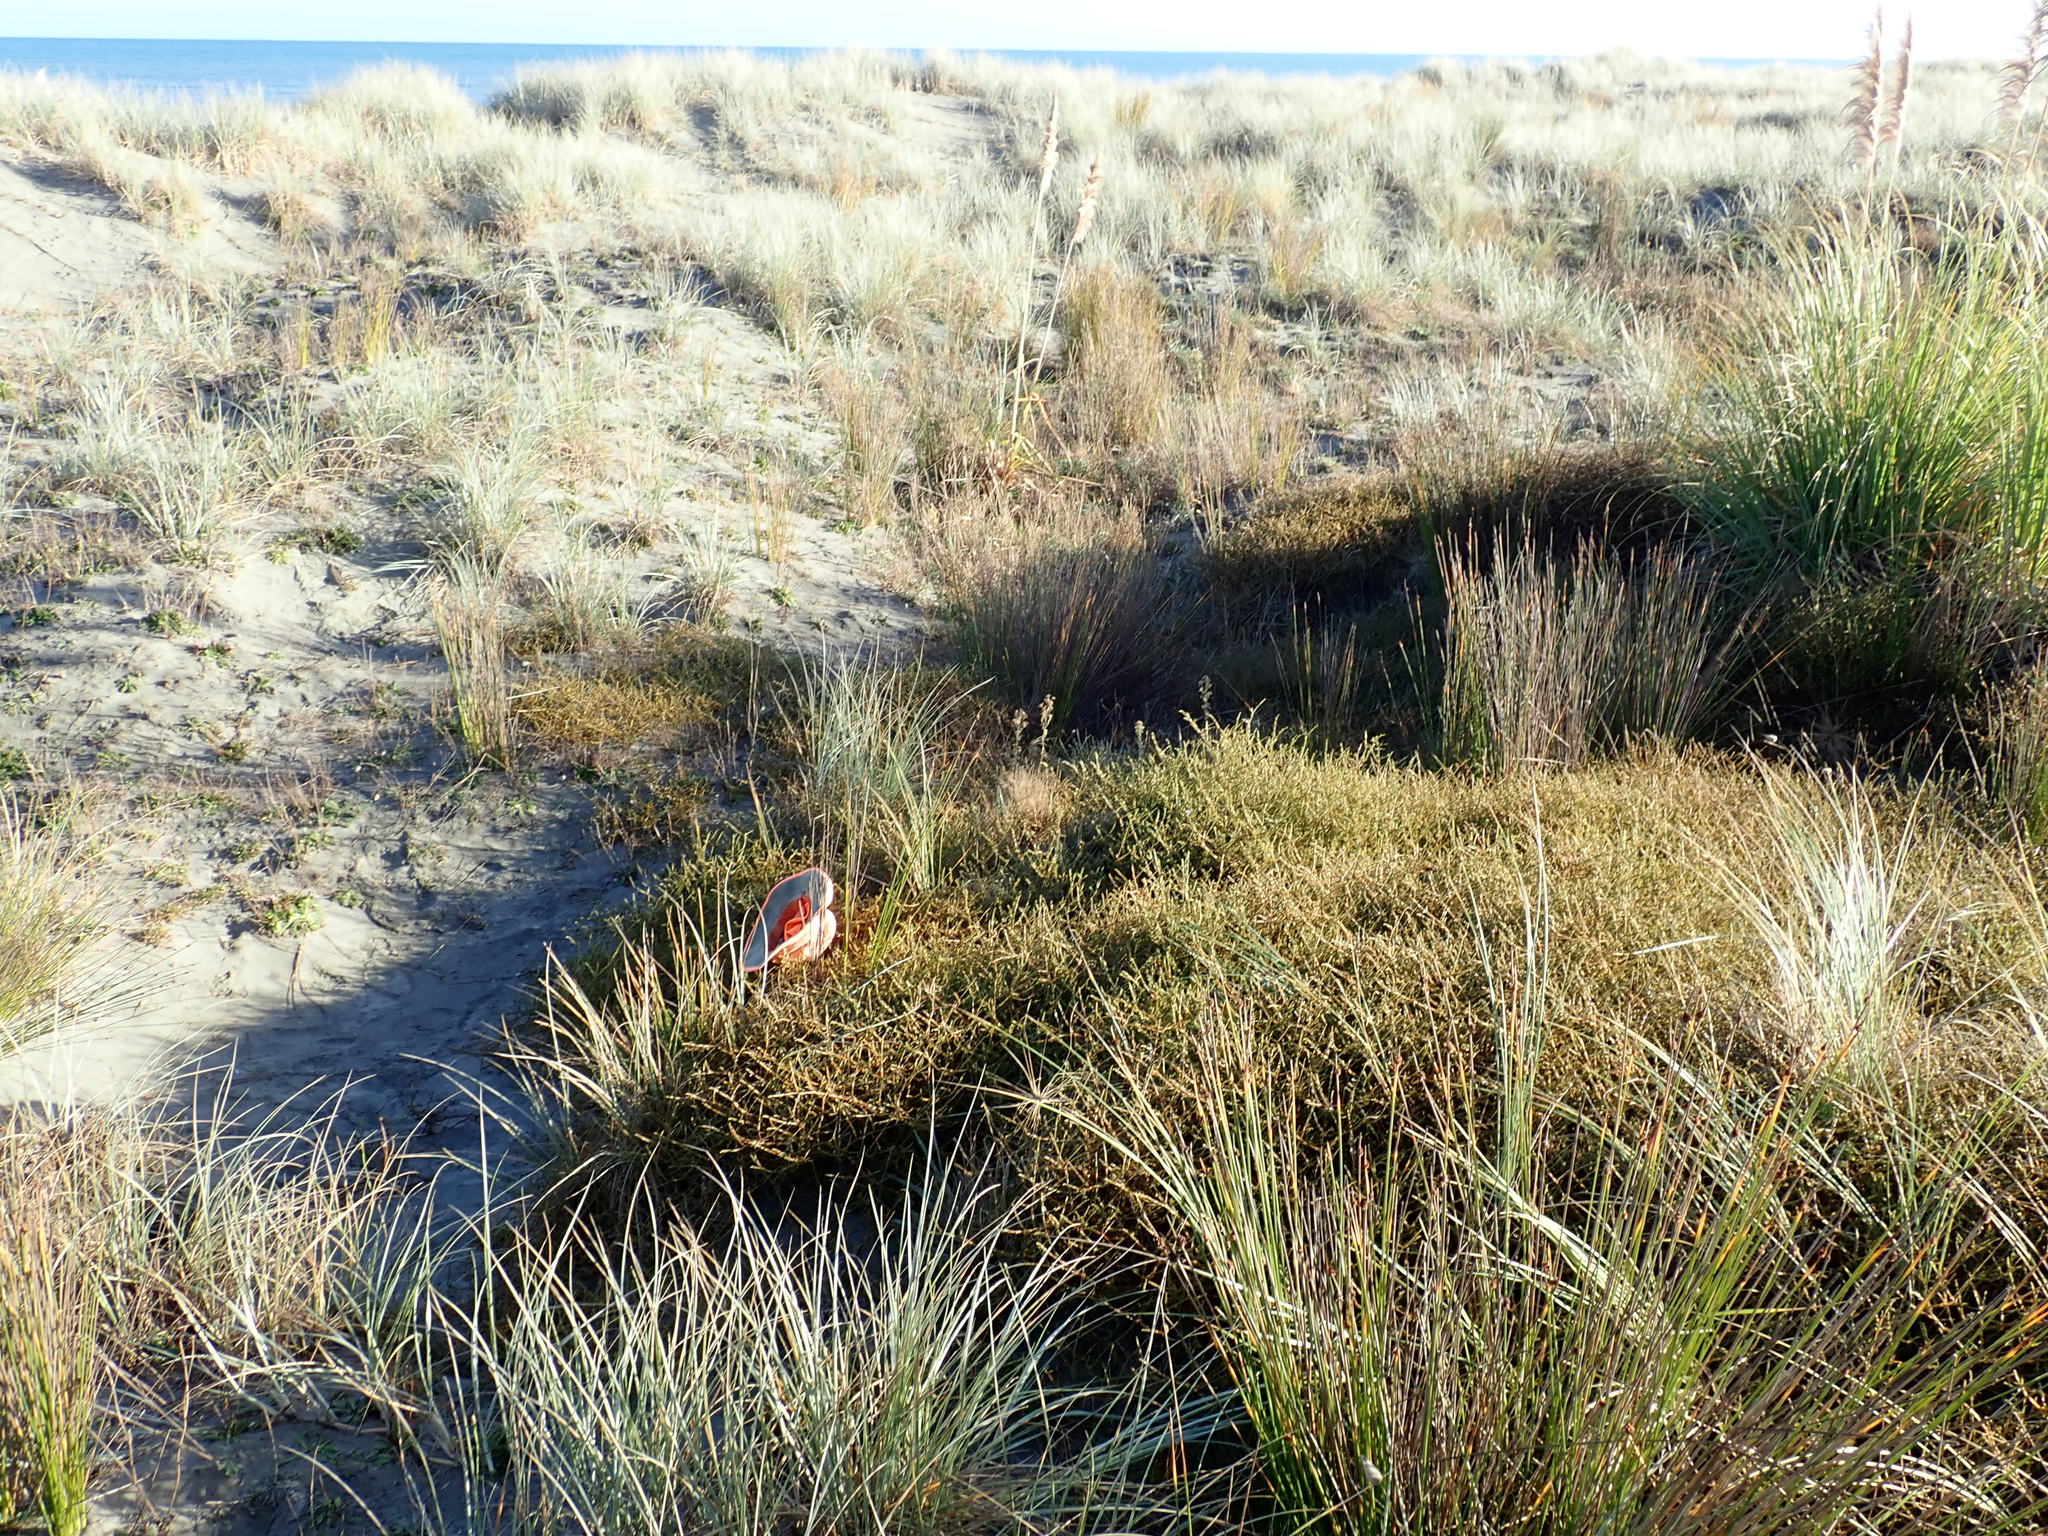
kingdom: Plantae
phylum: Tracheophyta
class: Magnoliopsida
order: Gentianales
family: Rubiaceae
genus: Coprosma
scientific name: Coprosma acerosa
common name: Sand coprosma
